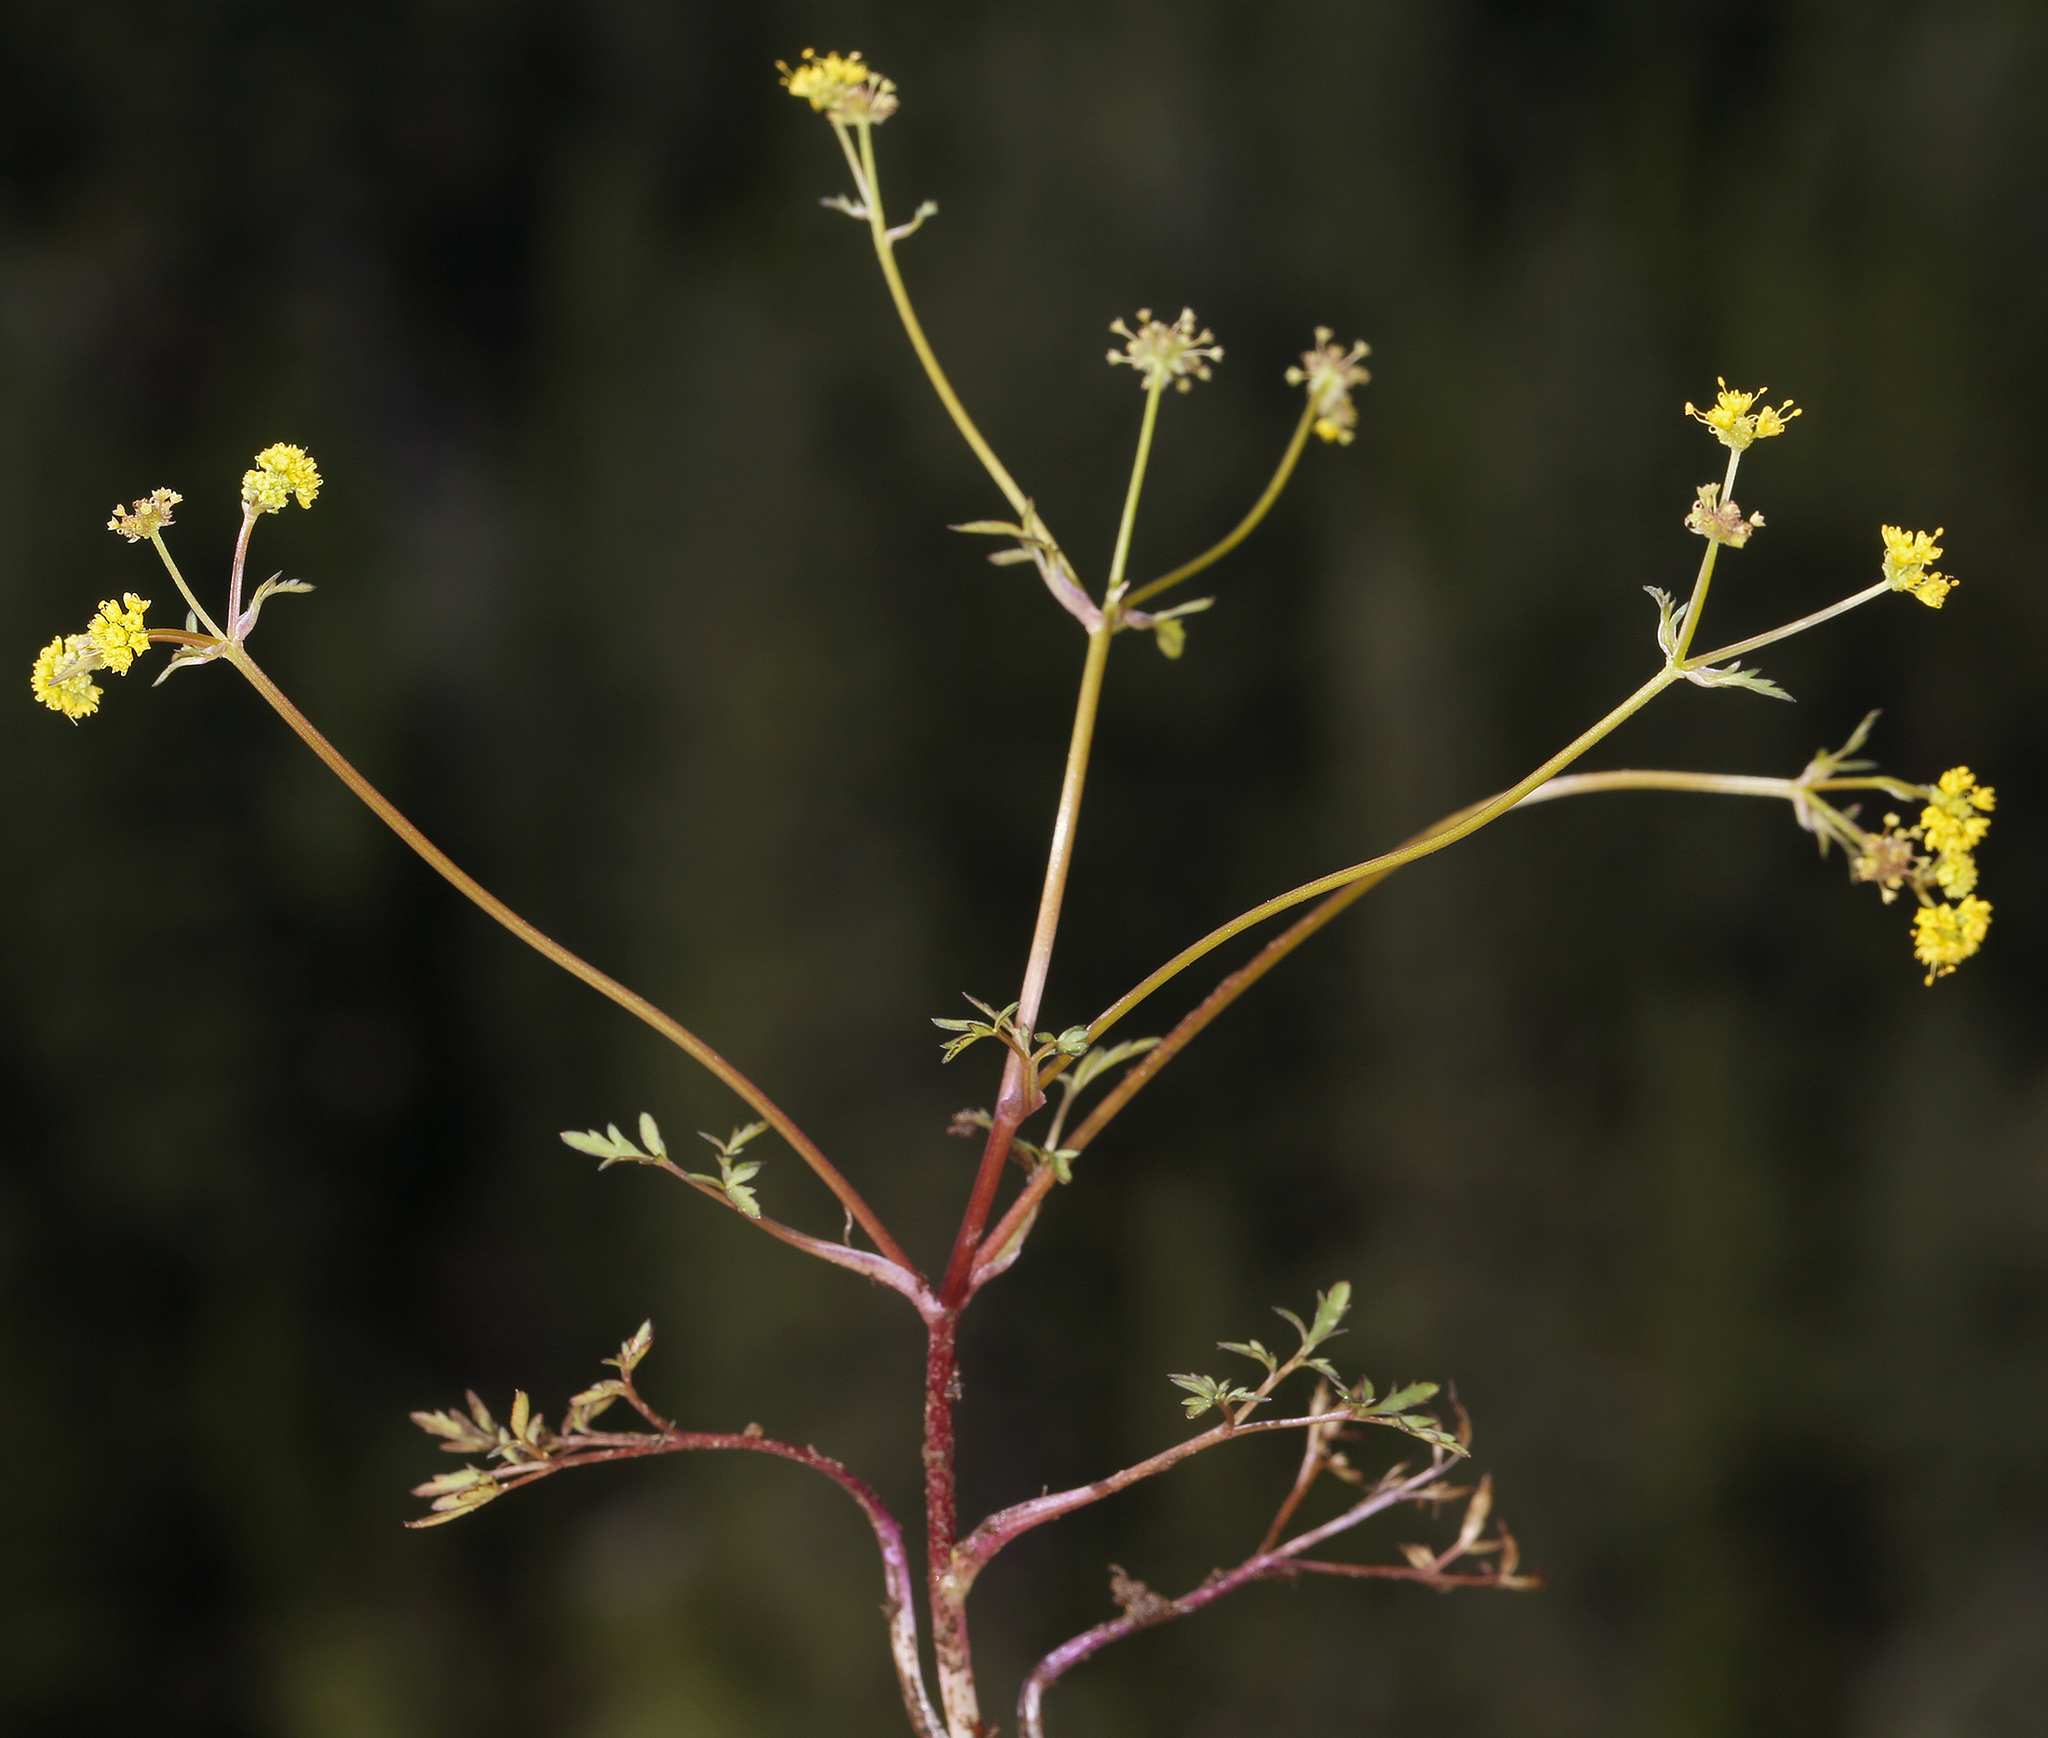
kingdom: Plantae
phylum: Tracheophyta
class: Magnoliopsida
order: Apiales
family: Apiaceae
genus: Sanicula
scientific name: Sanicula tuberosa
